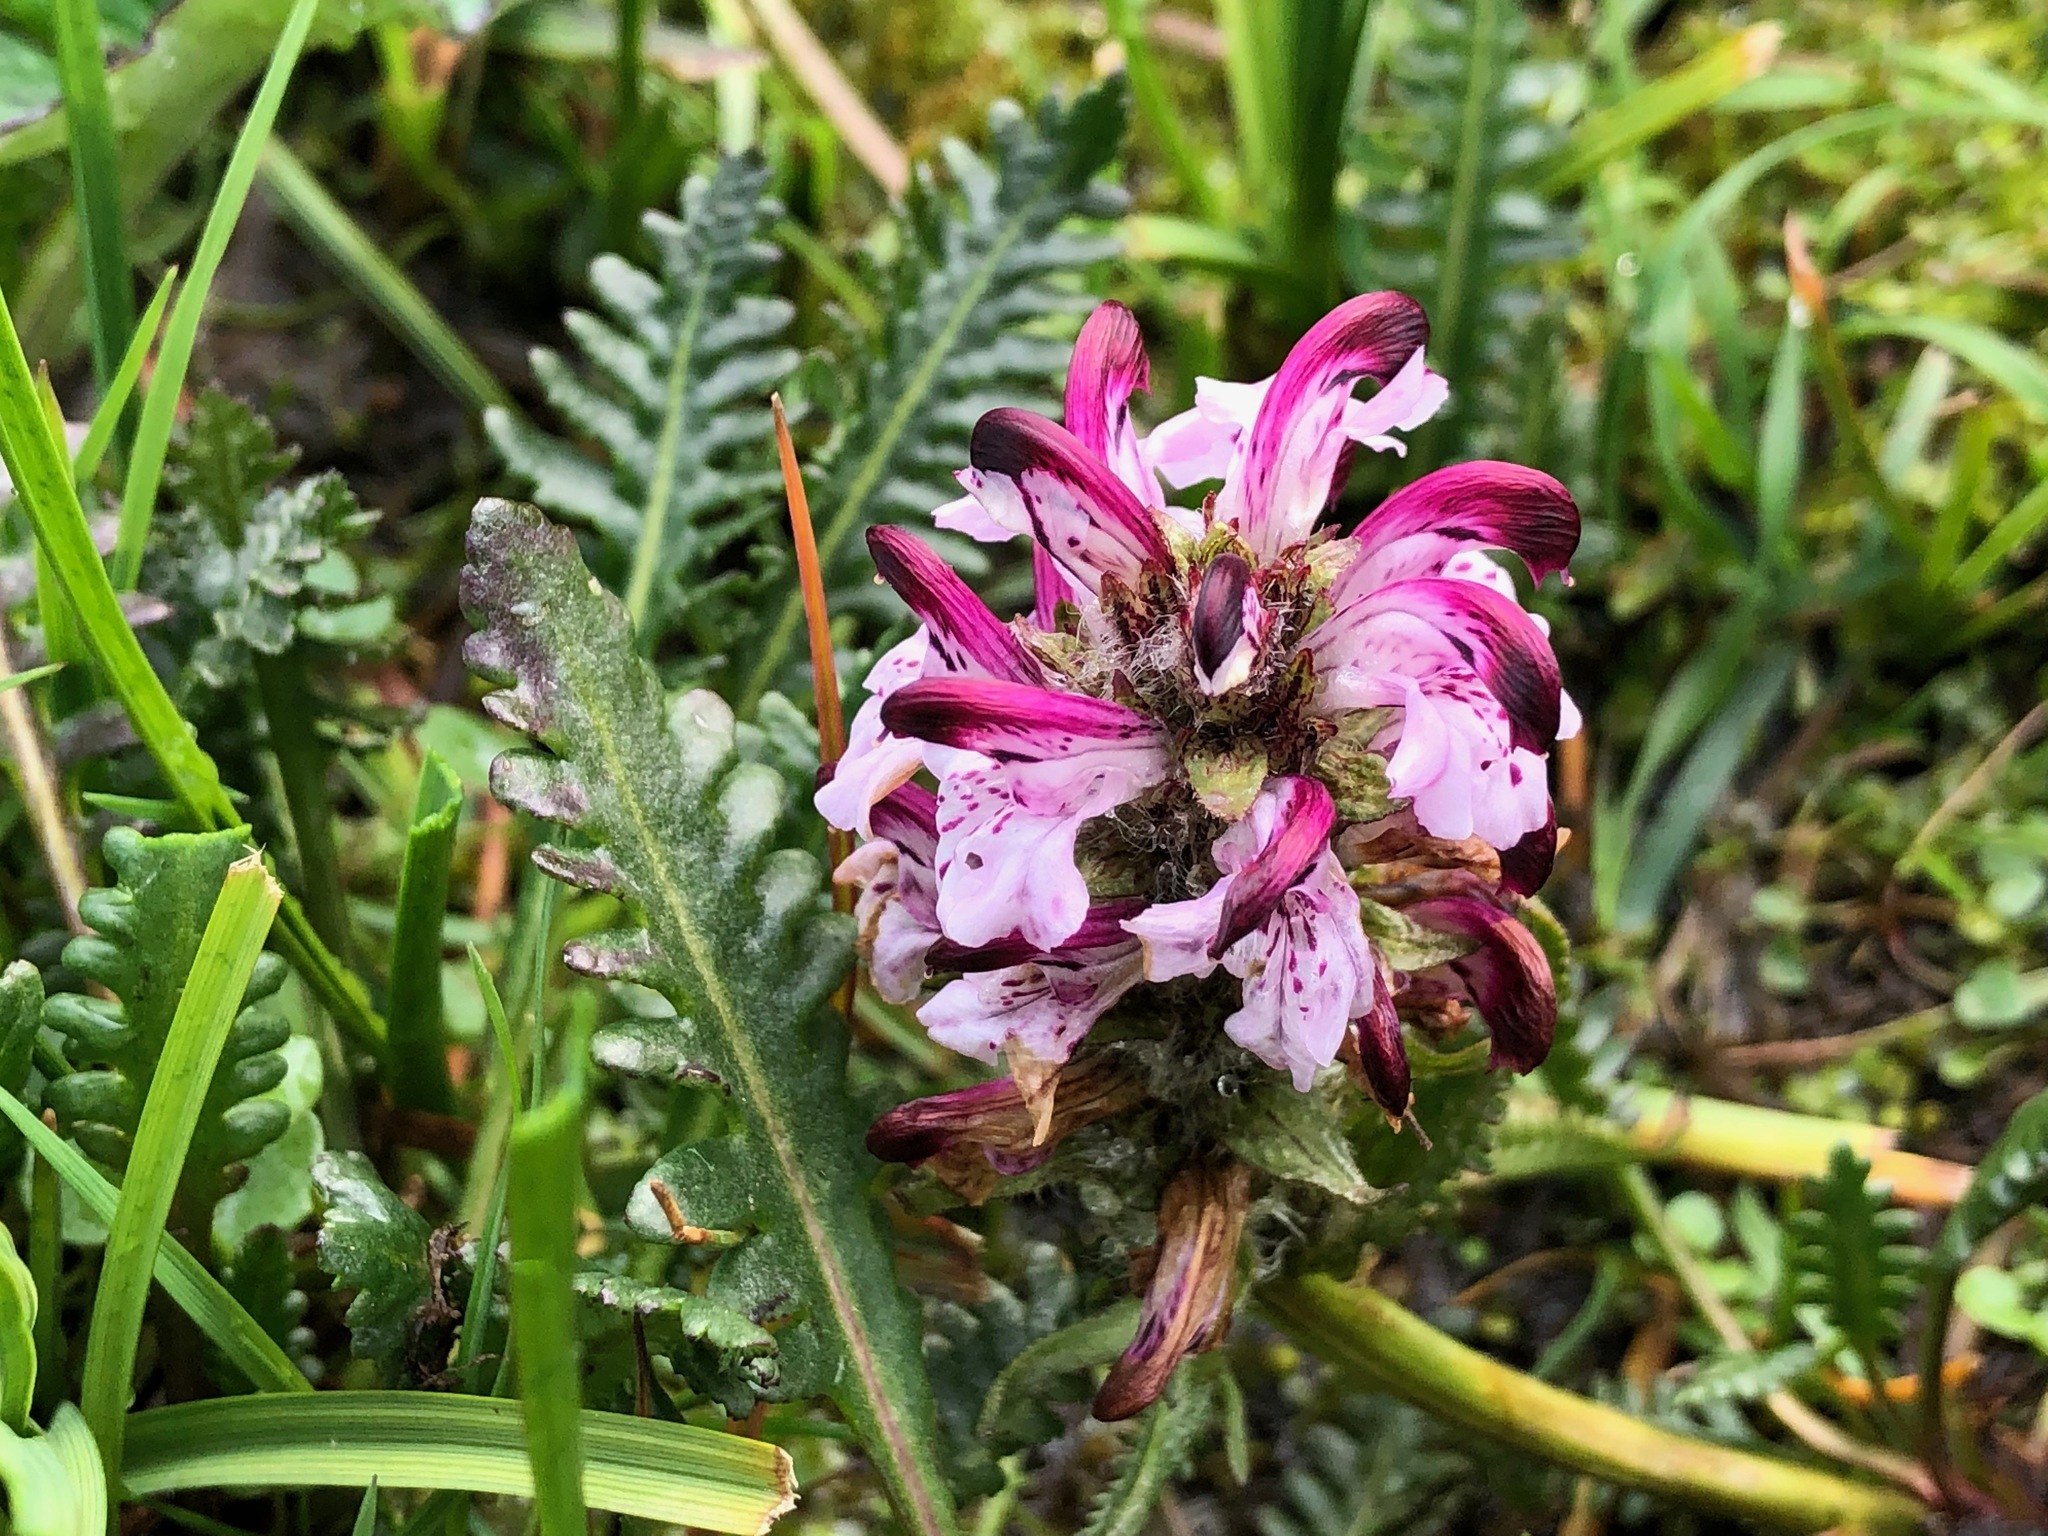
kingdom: Plantae
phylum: Tracheophyta
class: Magnoliopsida
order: Lamiales
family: Orobanchaceae
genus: Pedicularis
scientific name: Pedicularis novaiae-zemliae
